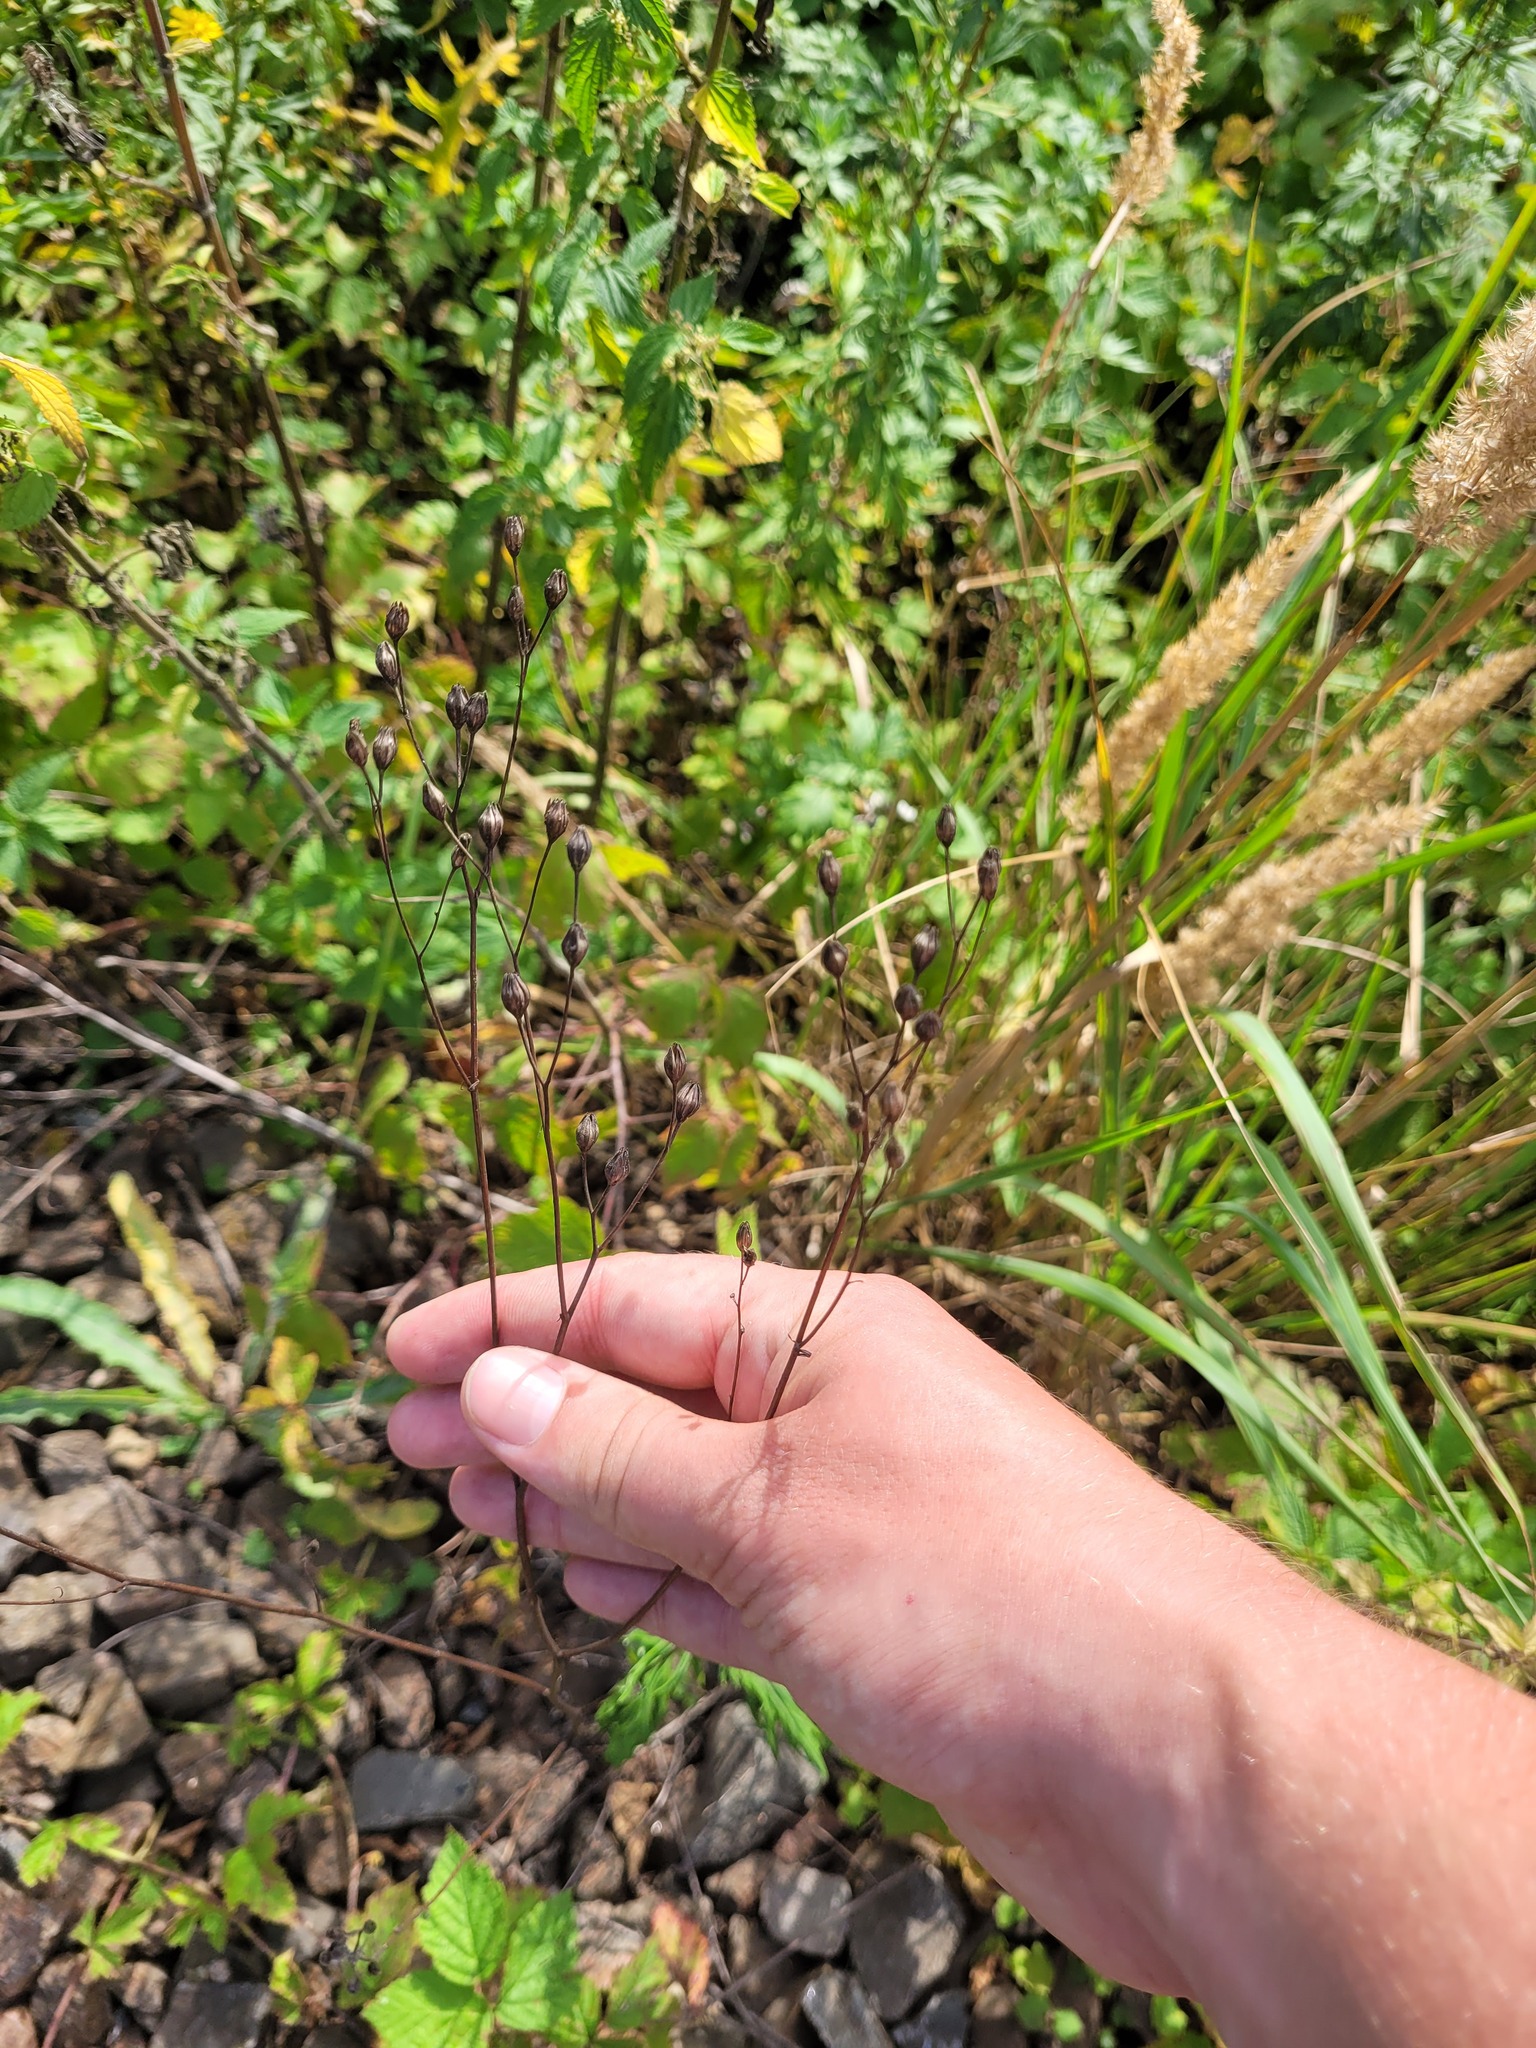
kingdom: Plantae
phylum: Tracheophyta
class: Magnoliopsida
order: Asterales
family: Asteraceae
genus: Lapsana
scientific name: Lapsana communis
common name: Nipplewort
